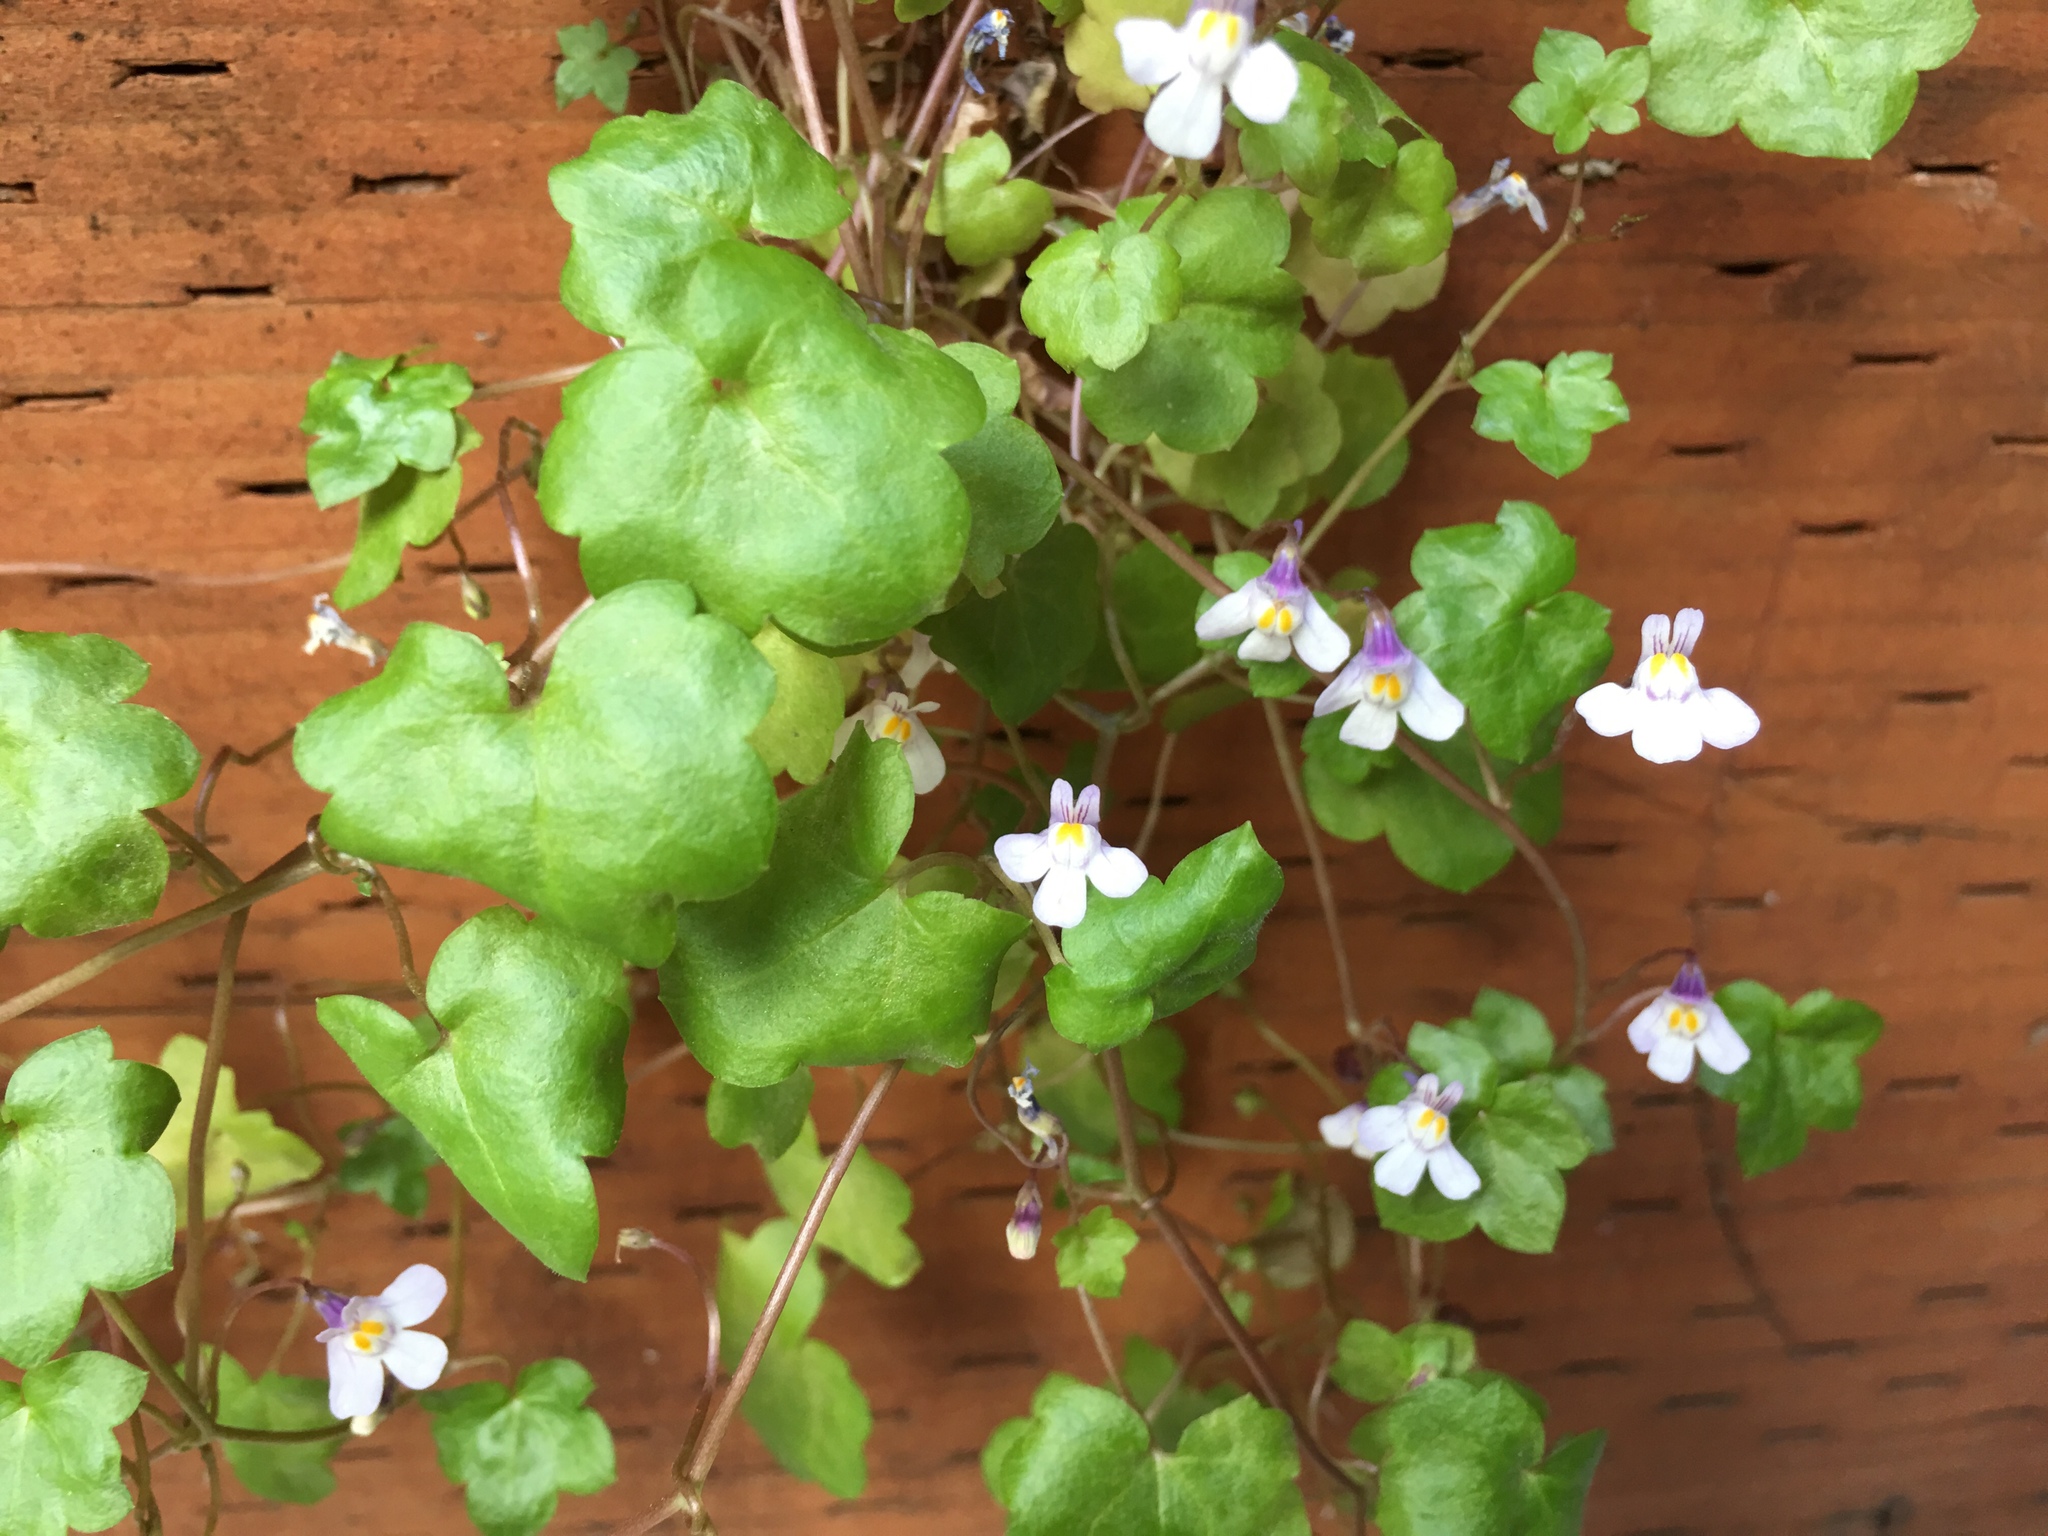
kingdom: Plantae
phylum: Tracheophyta
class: Magnoliopsida
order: Lamiales
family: Plantaginaceae
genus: Cymbalaria
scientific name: Cymbalaria muralis
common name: Ivy-leaved toadflax
